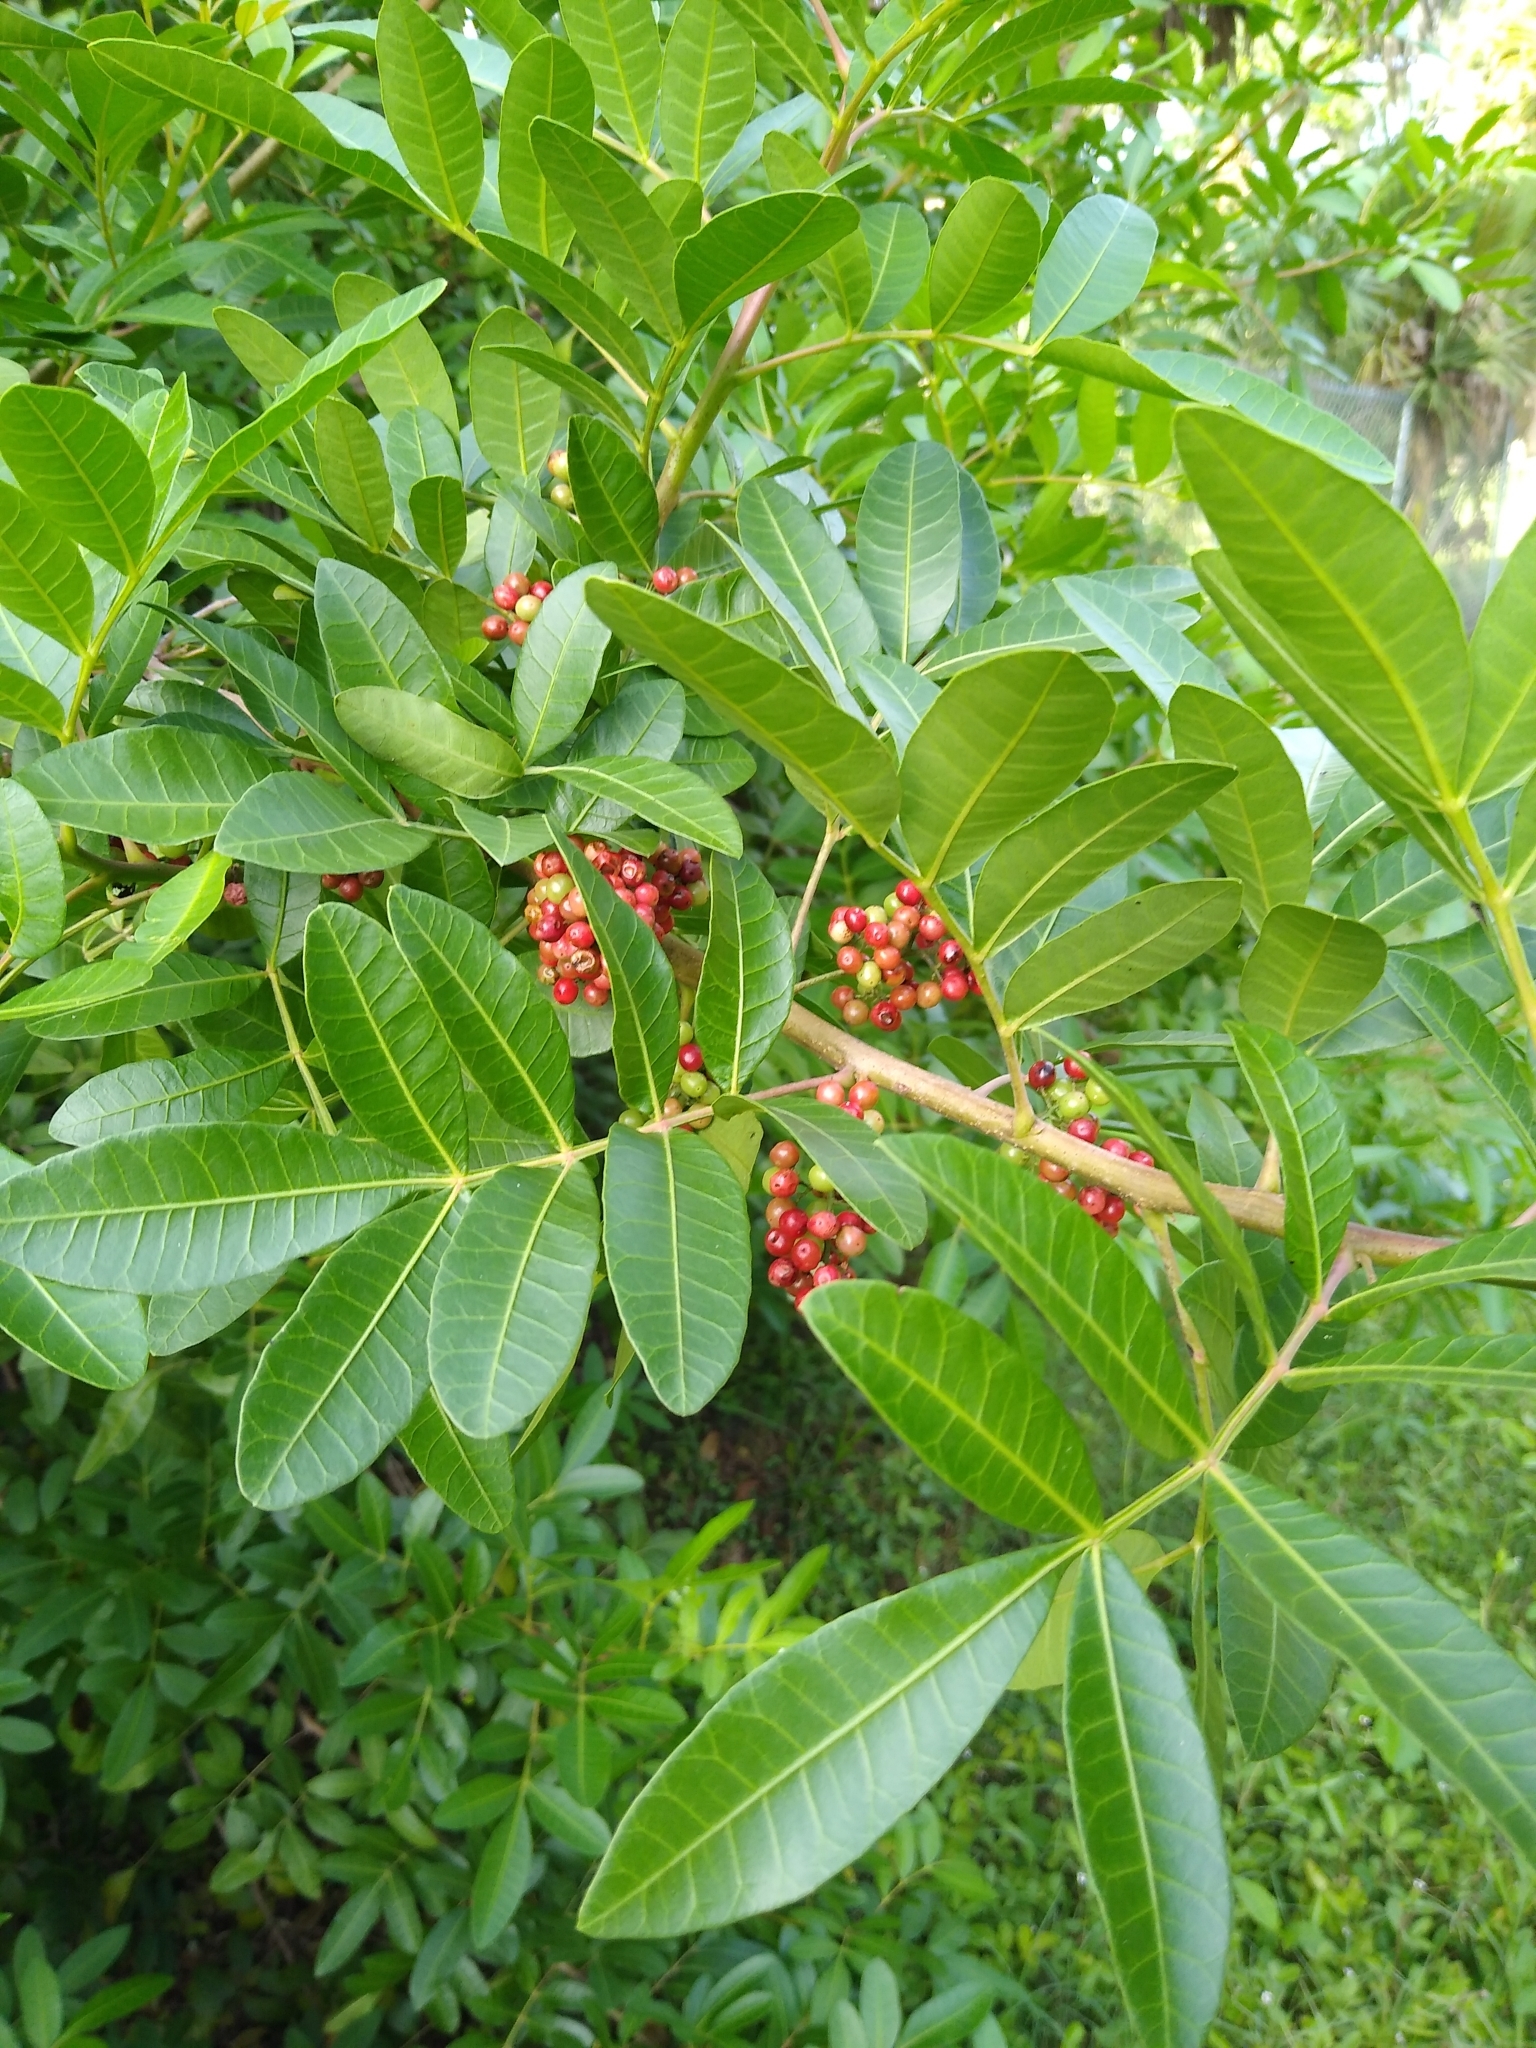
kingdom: Plantae
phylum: Tracheophyta
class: Magnoliopsida
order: Sapindales
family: Anacardiaceae
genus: Schinus
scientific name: Schinus terebinthifolia
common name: Brazilian peppertree
